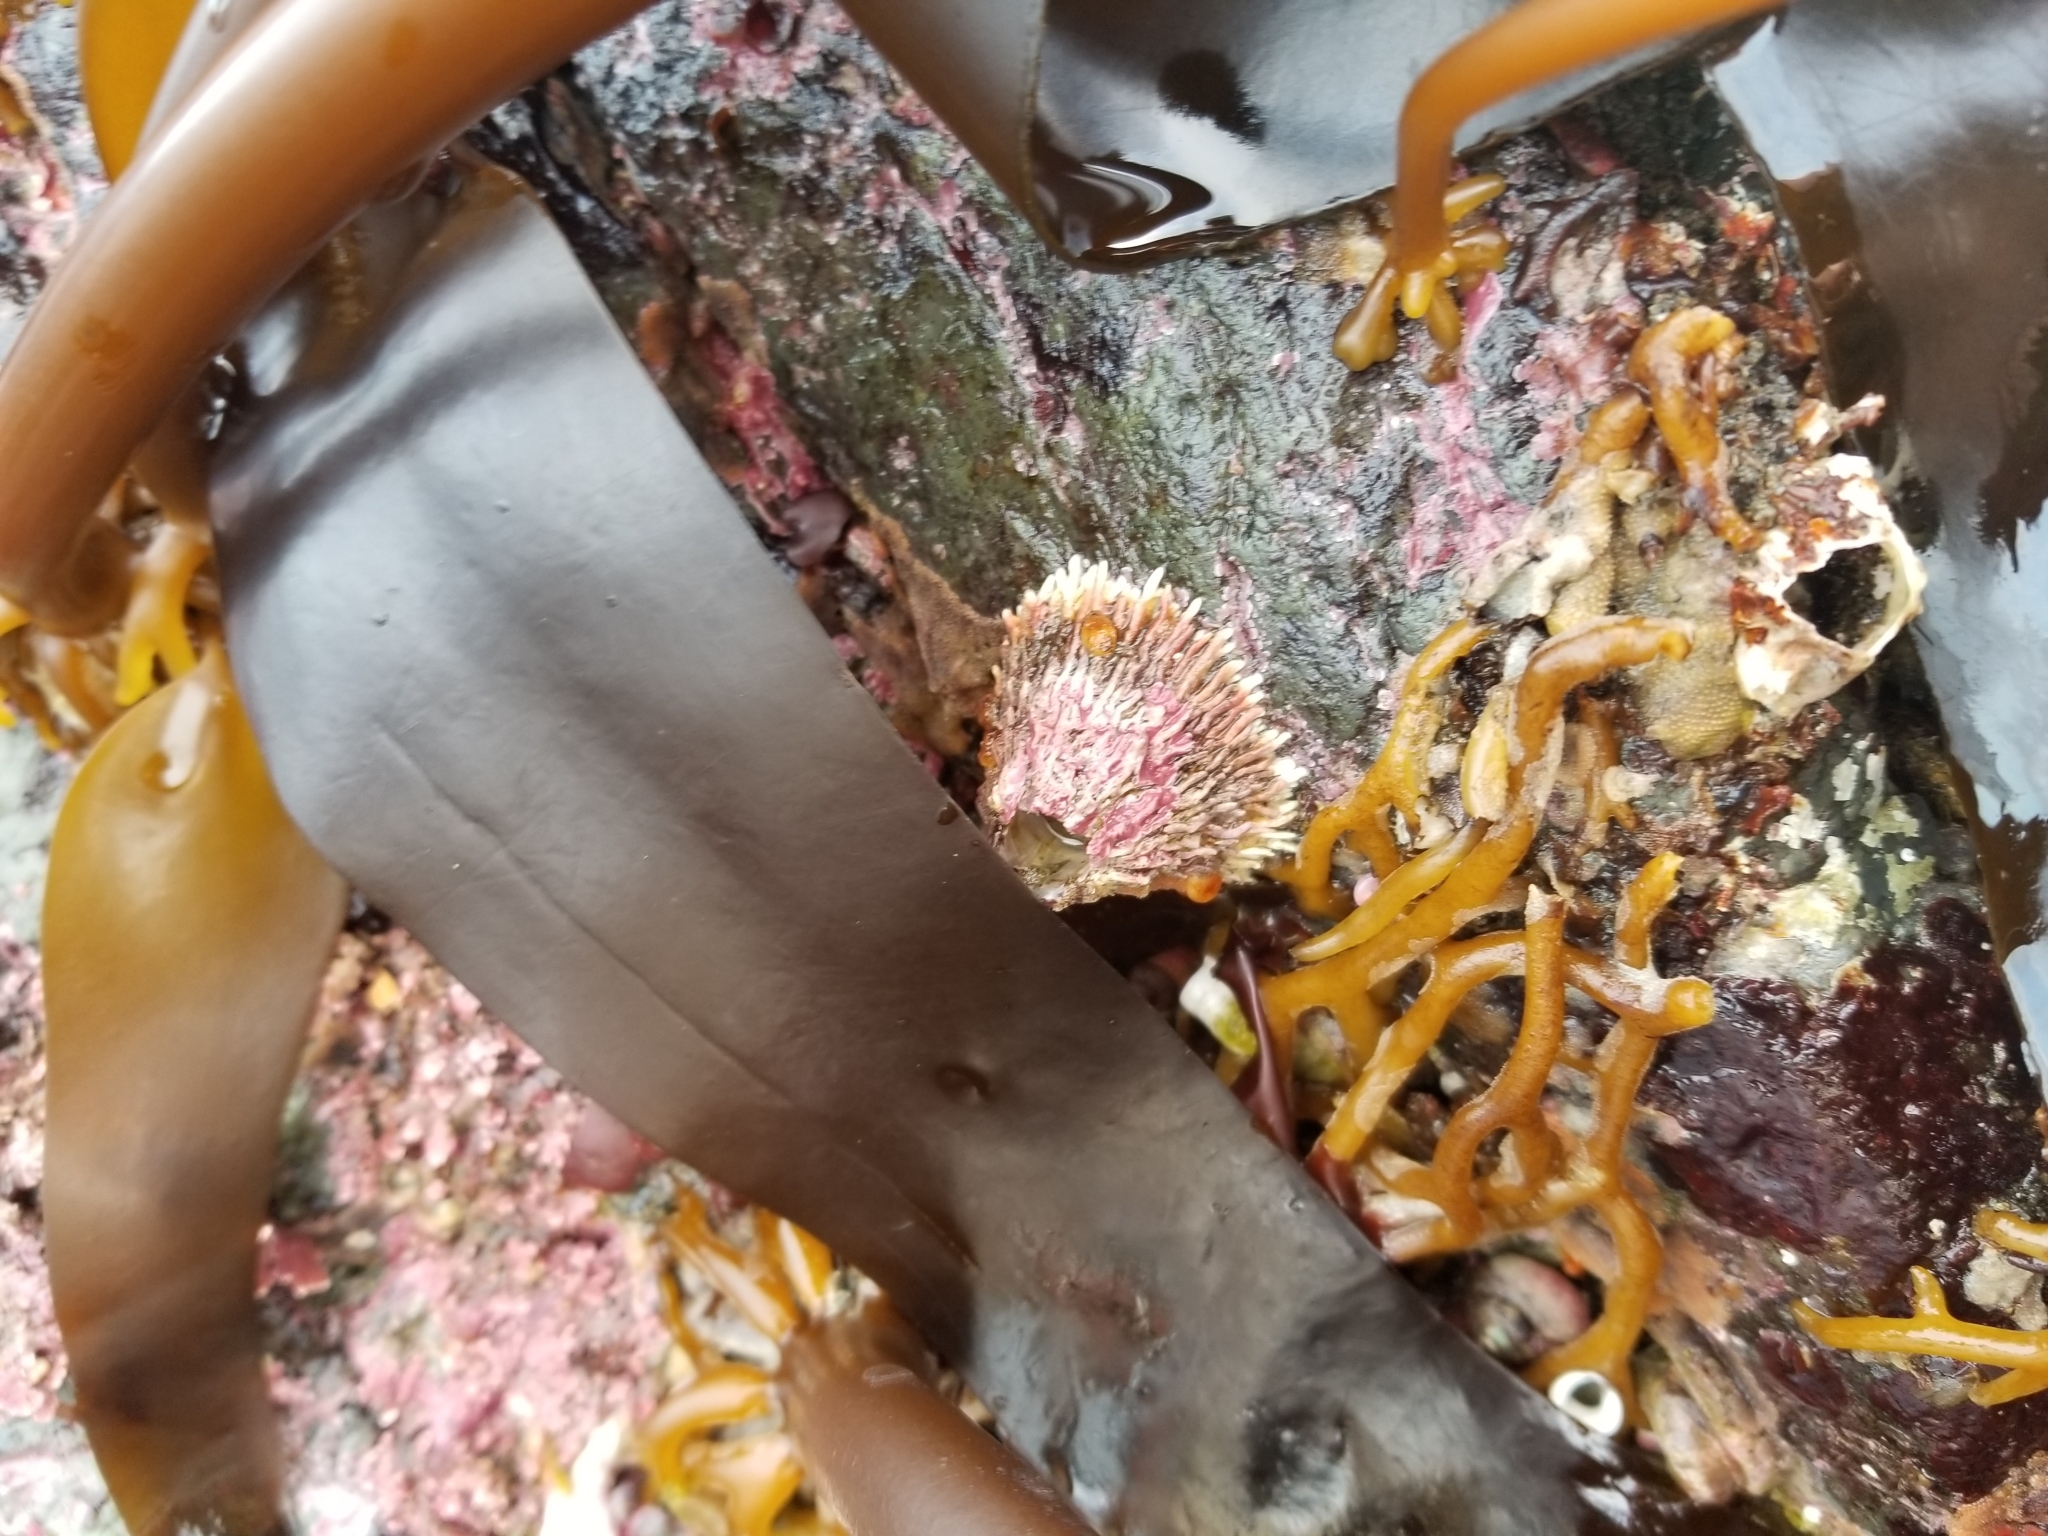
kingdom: Animalia
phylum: Arthropoda
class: Maxillopoda
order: Sessilia
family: Archaeobalanidae
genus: Semibalanus
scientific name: Semibalanus cariosus
